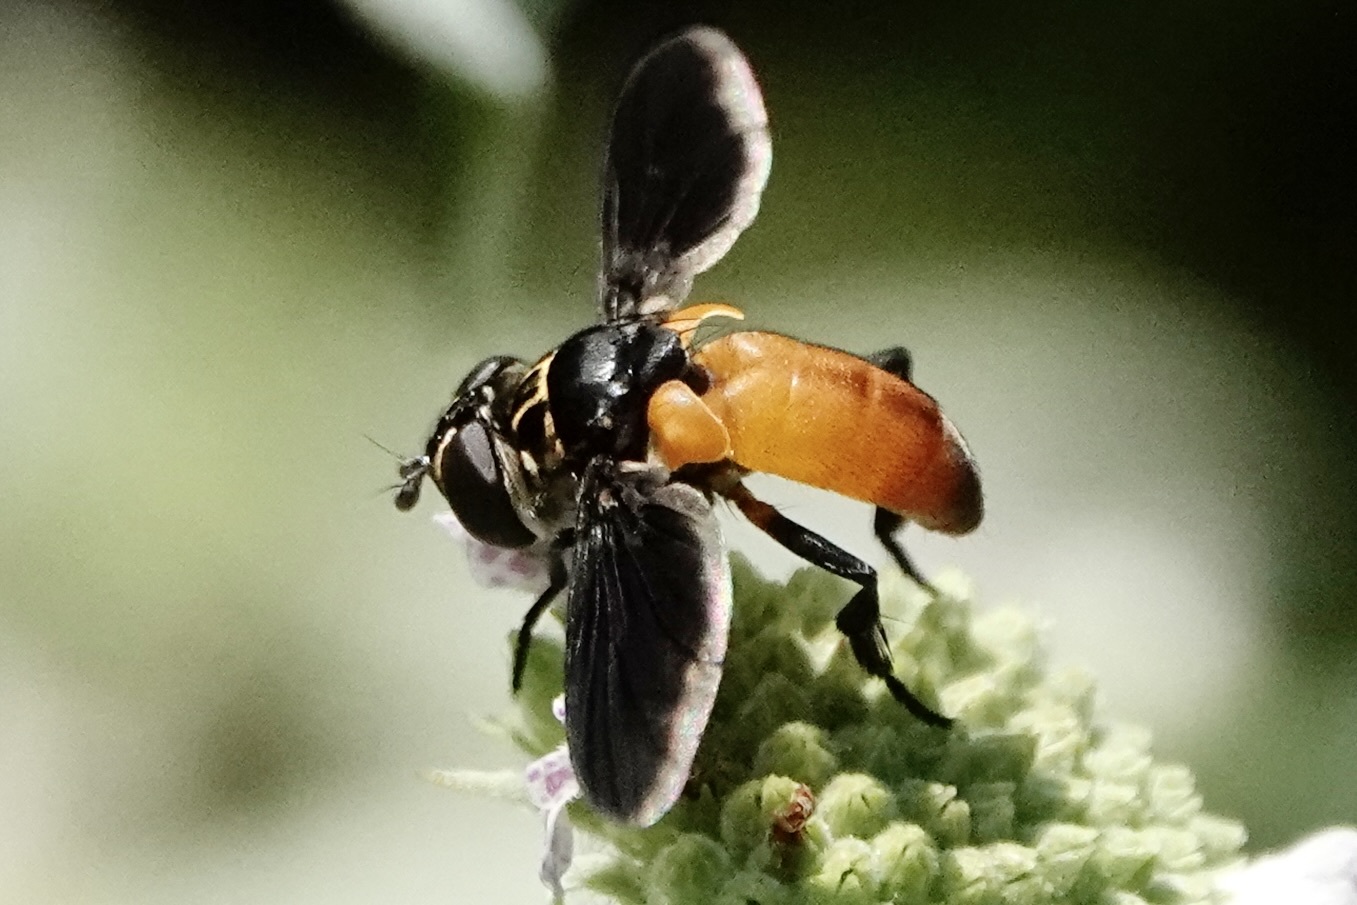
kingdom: Animalia
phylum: Arthropoda
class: Insecta
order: Diptera
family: Tachinidae
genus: Trichopoda
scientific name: Trichopoda pennipes
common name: Tachinid fly
